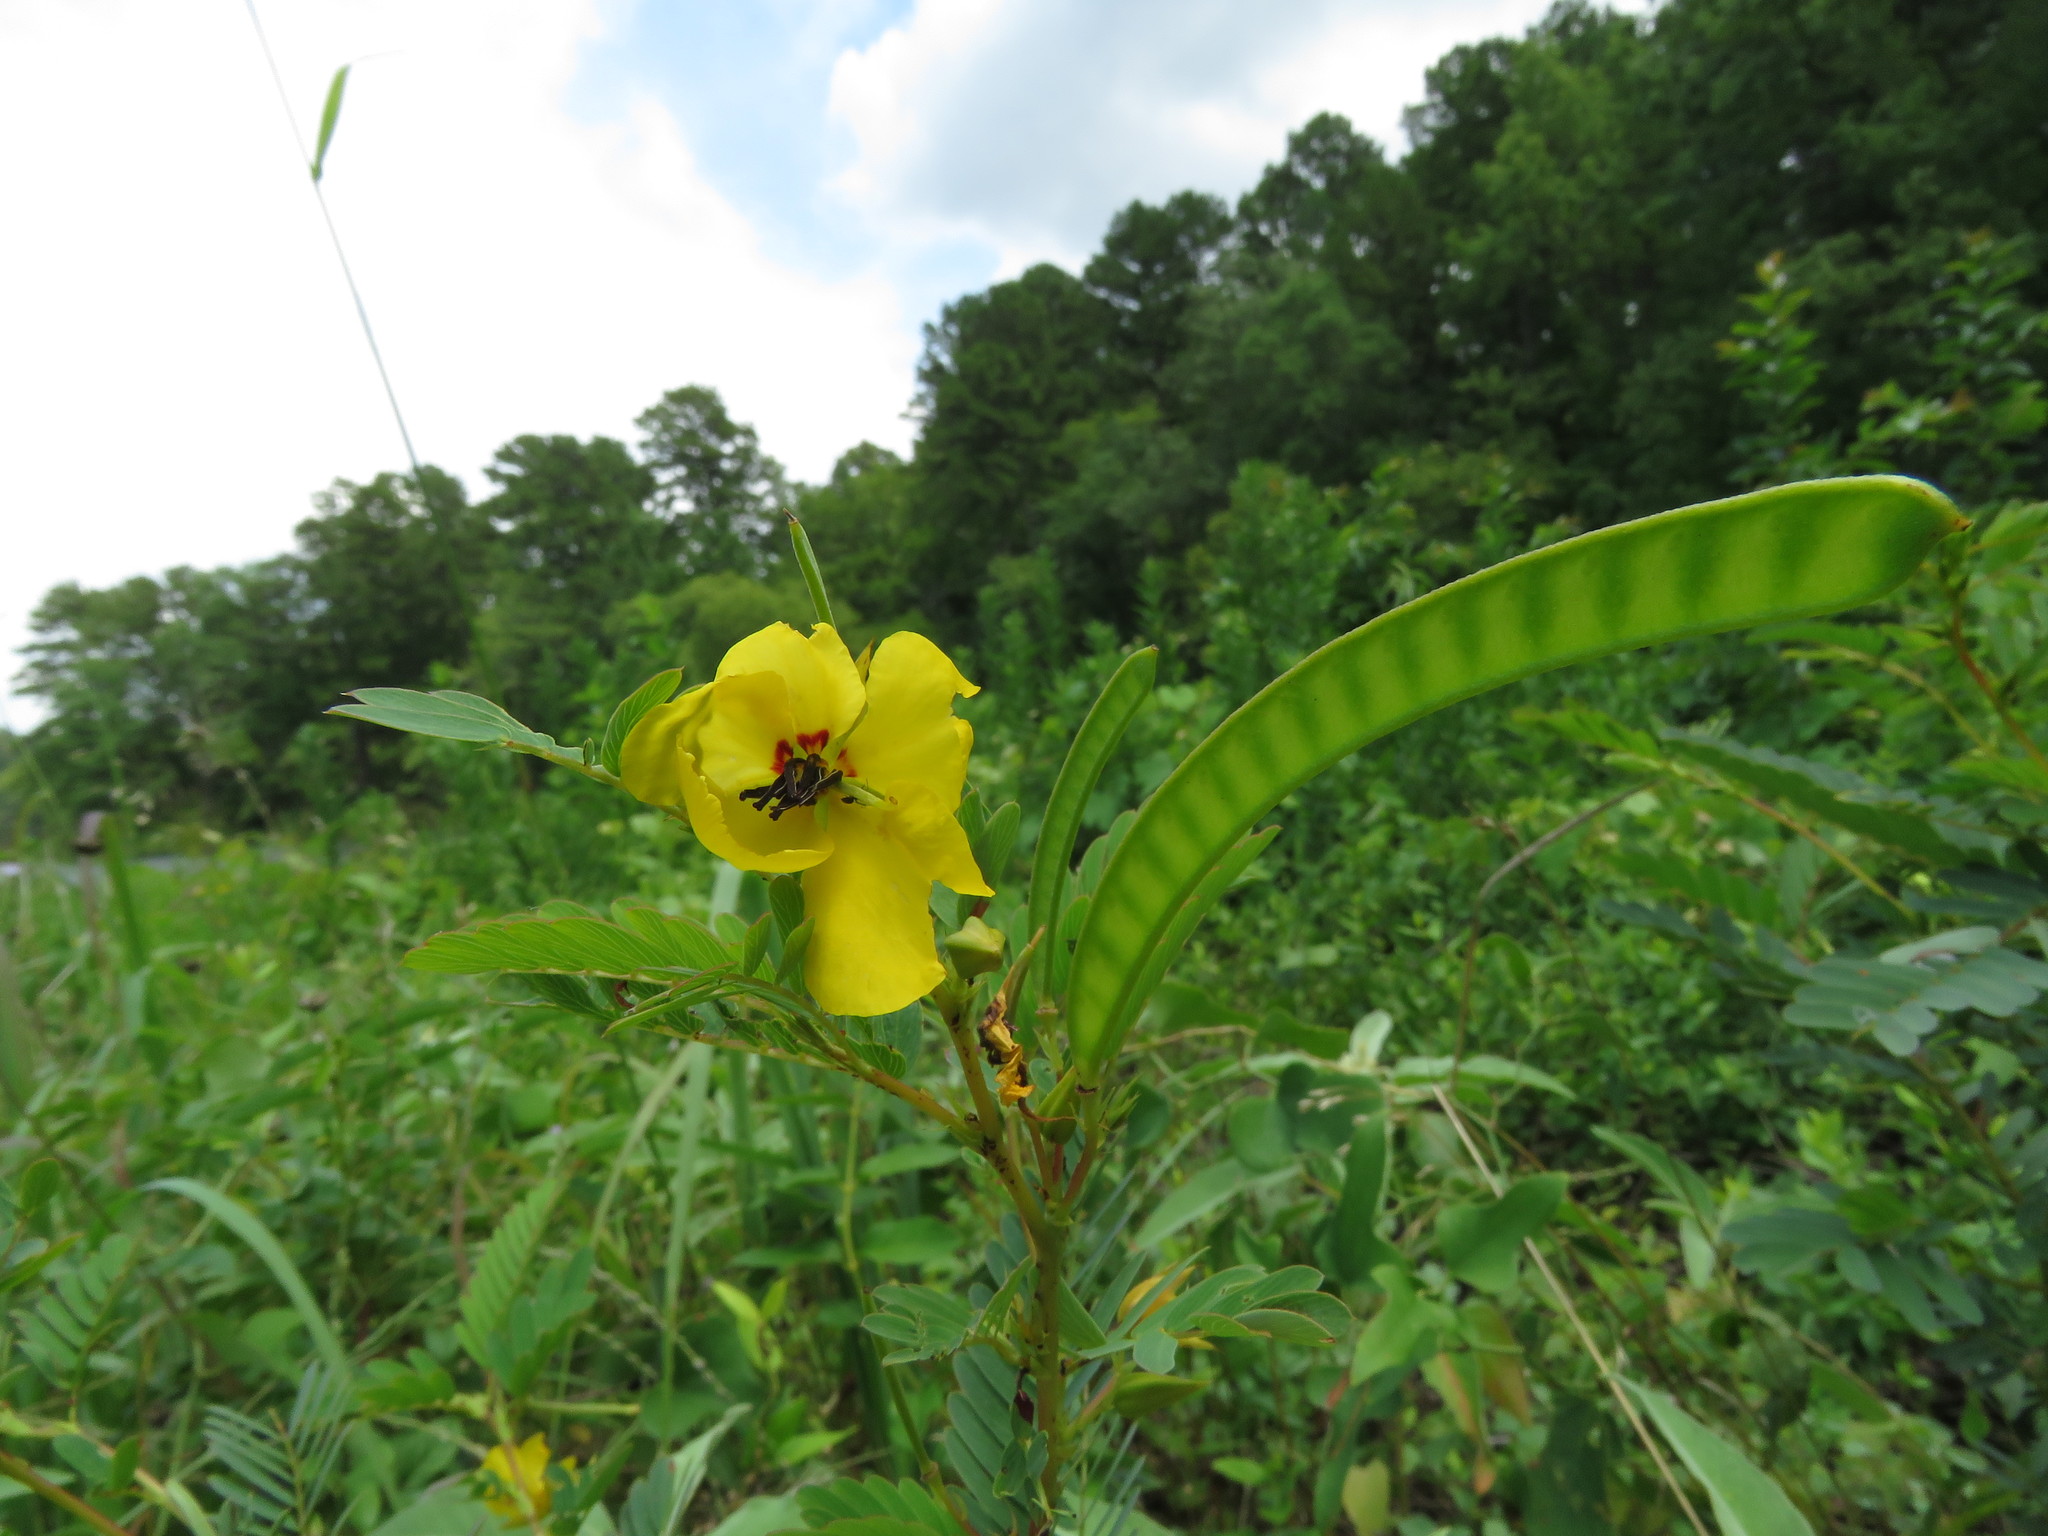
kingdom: Plantae
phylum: Tracheophyta
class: Magnoliopsida
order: Fabales
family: Fabaceae
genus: Chamaecrista
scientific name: Chamaecrista fasciculata
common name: Golden cassia
